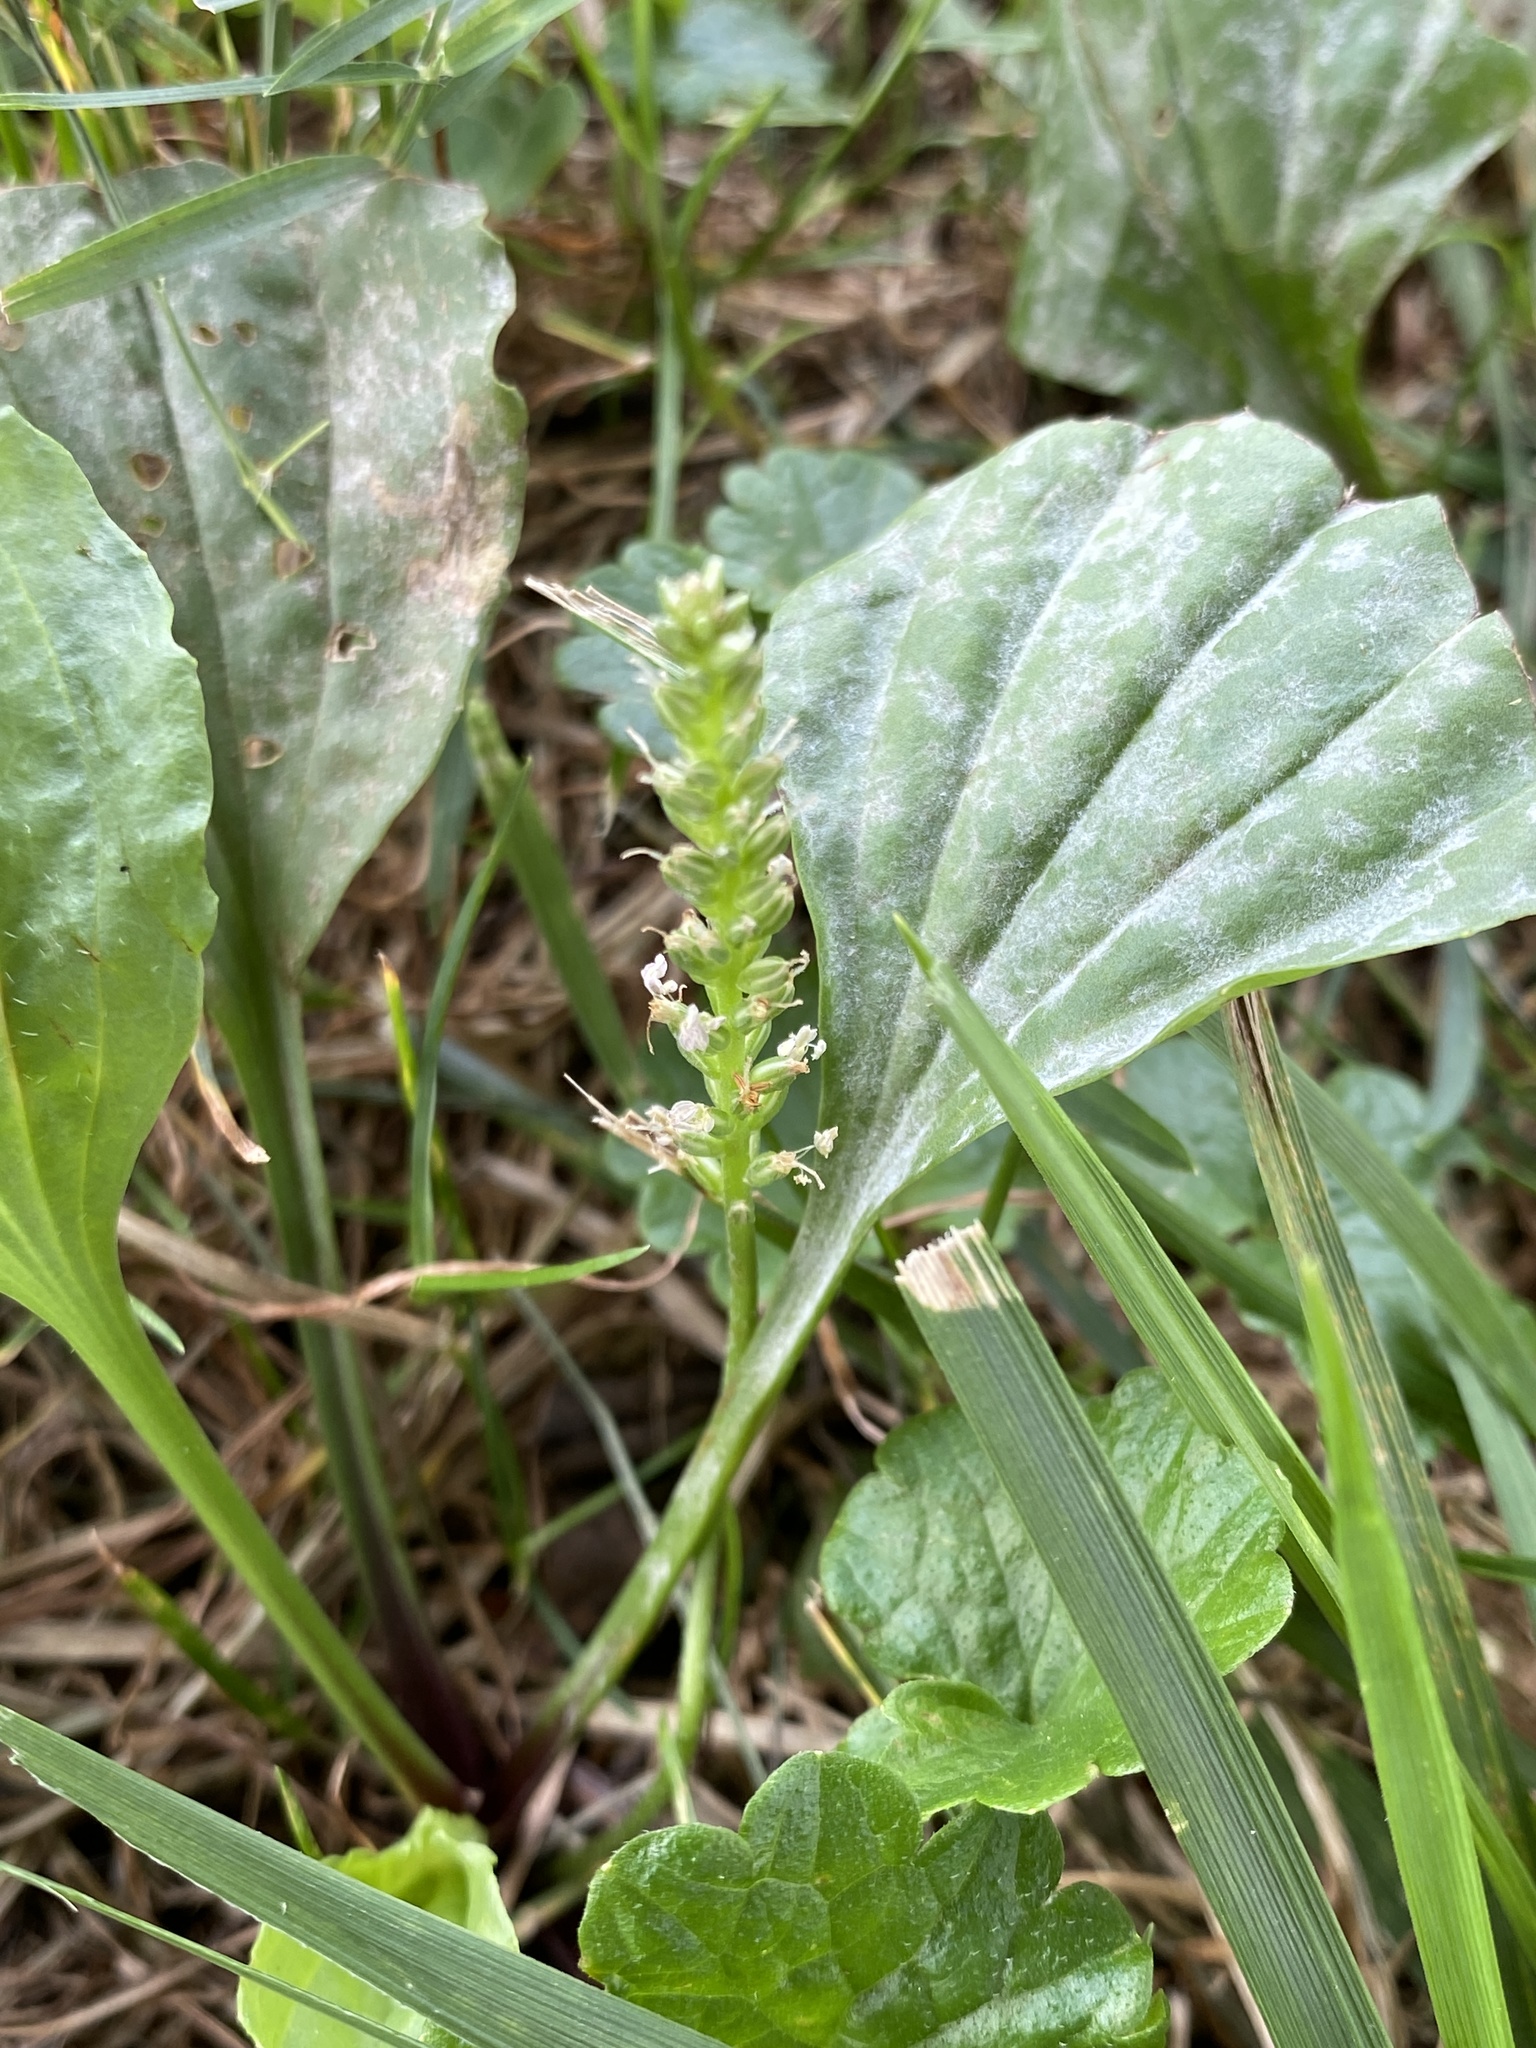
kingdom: Plantae
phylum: Tracheophyta
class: Magnoliopsida
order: Lamiales
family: Plantaginaceae
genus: Plantago
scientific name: Plantago rugelii
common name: American plantain
